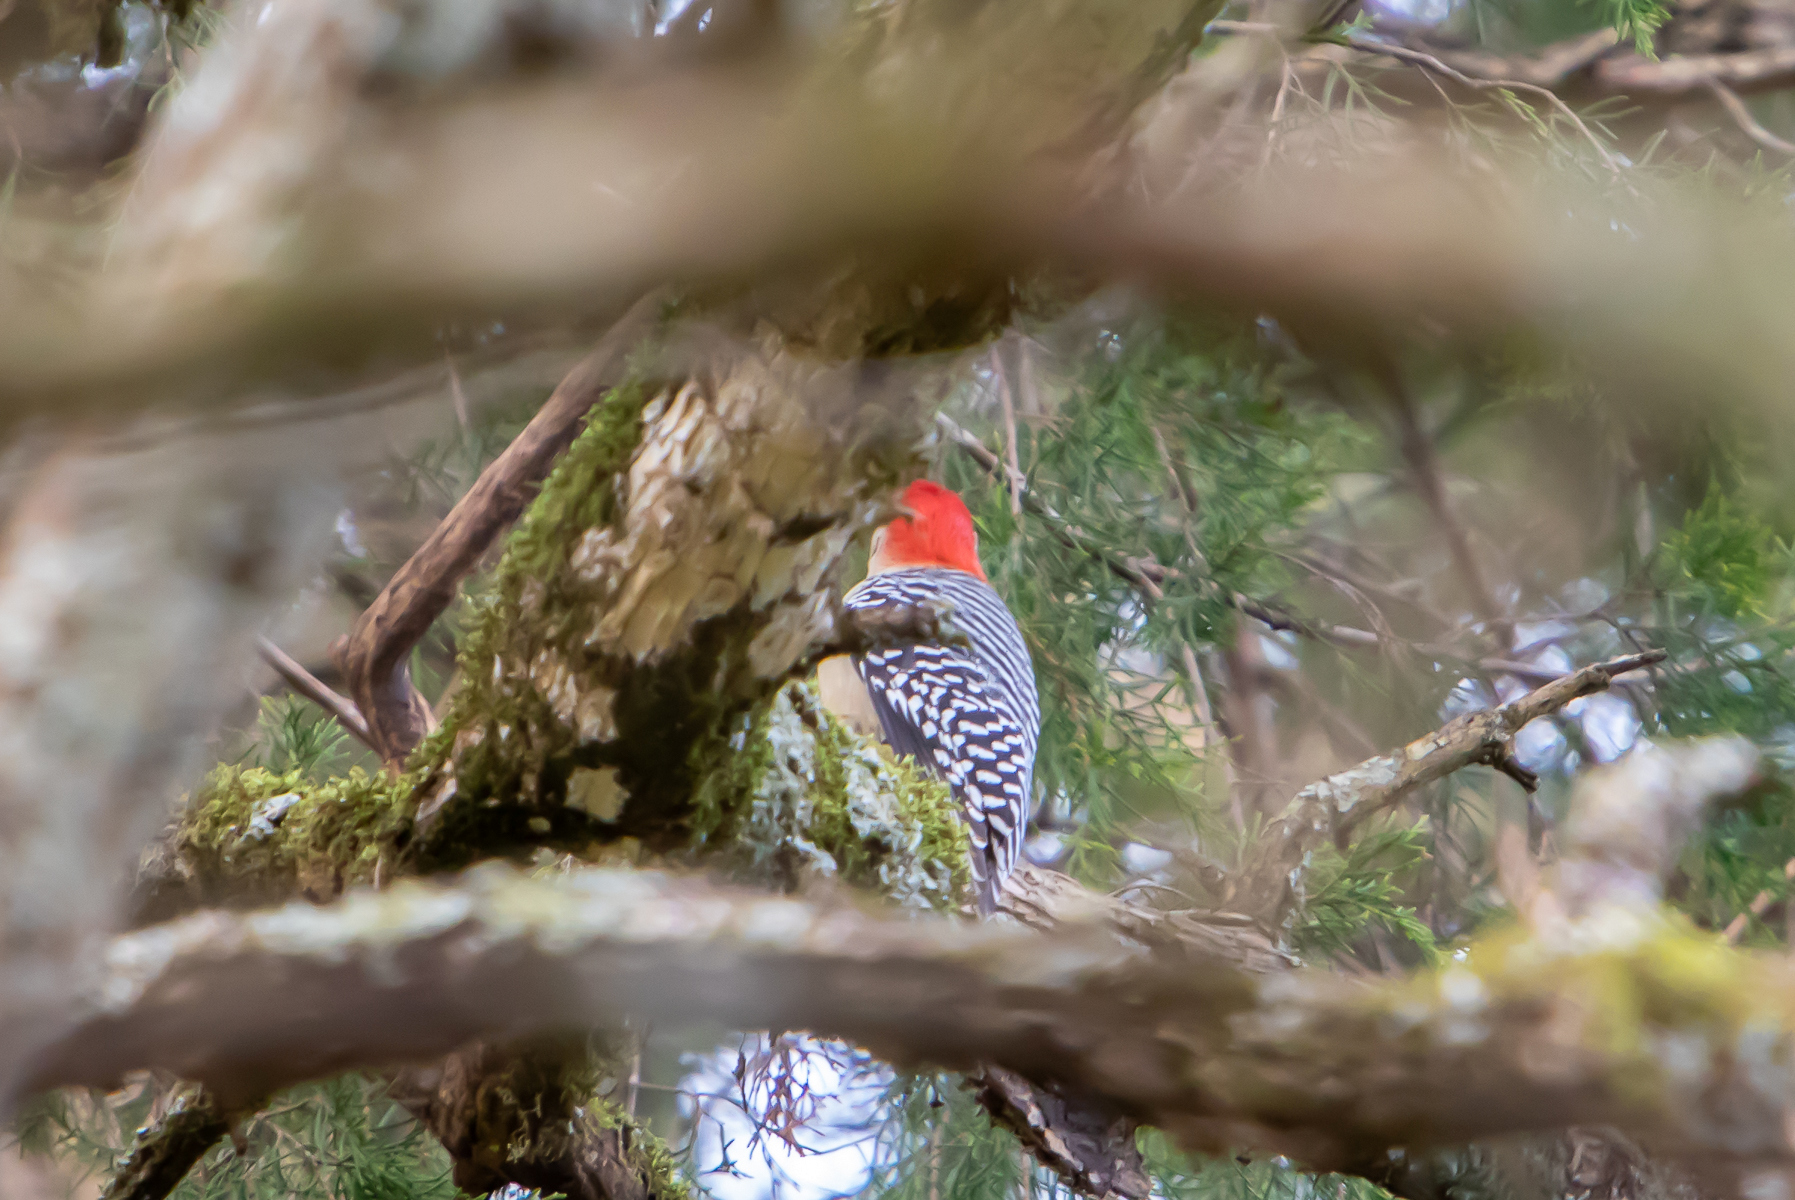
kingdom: Animalia
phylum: Chordata
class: Aves
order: Piciformes
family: Picidae
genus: Melanerpes
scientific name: Melanerpes carolinus
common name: Red-bellied woodpecker
